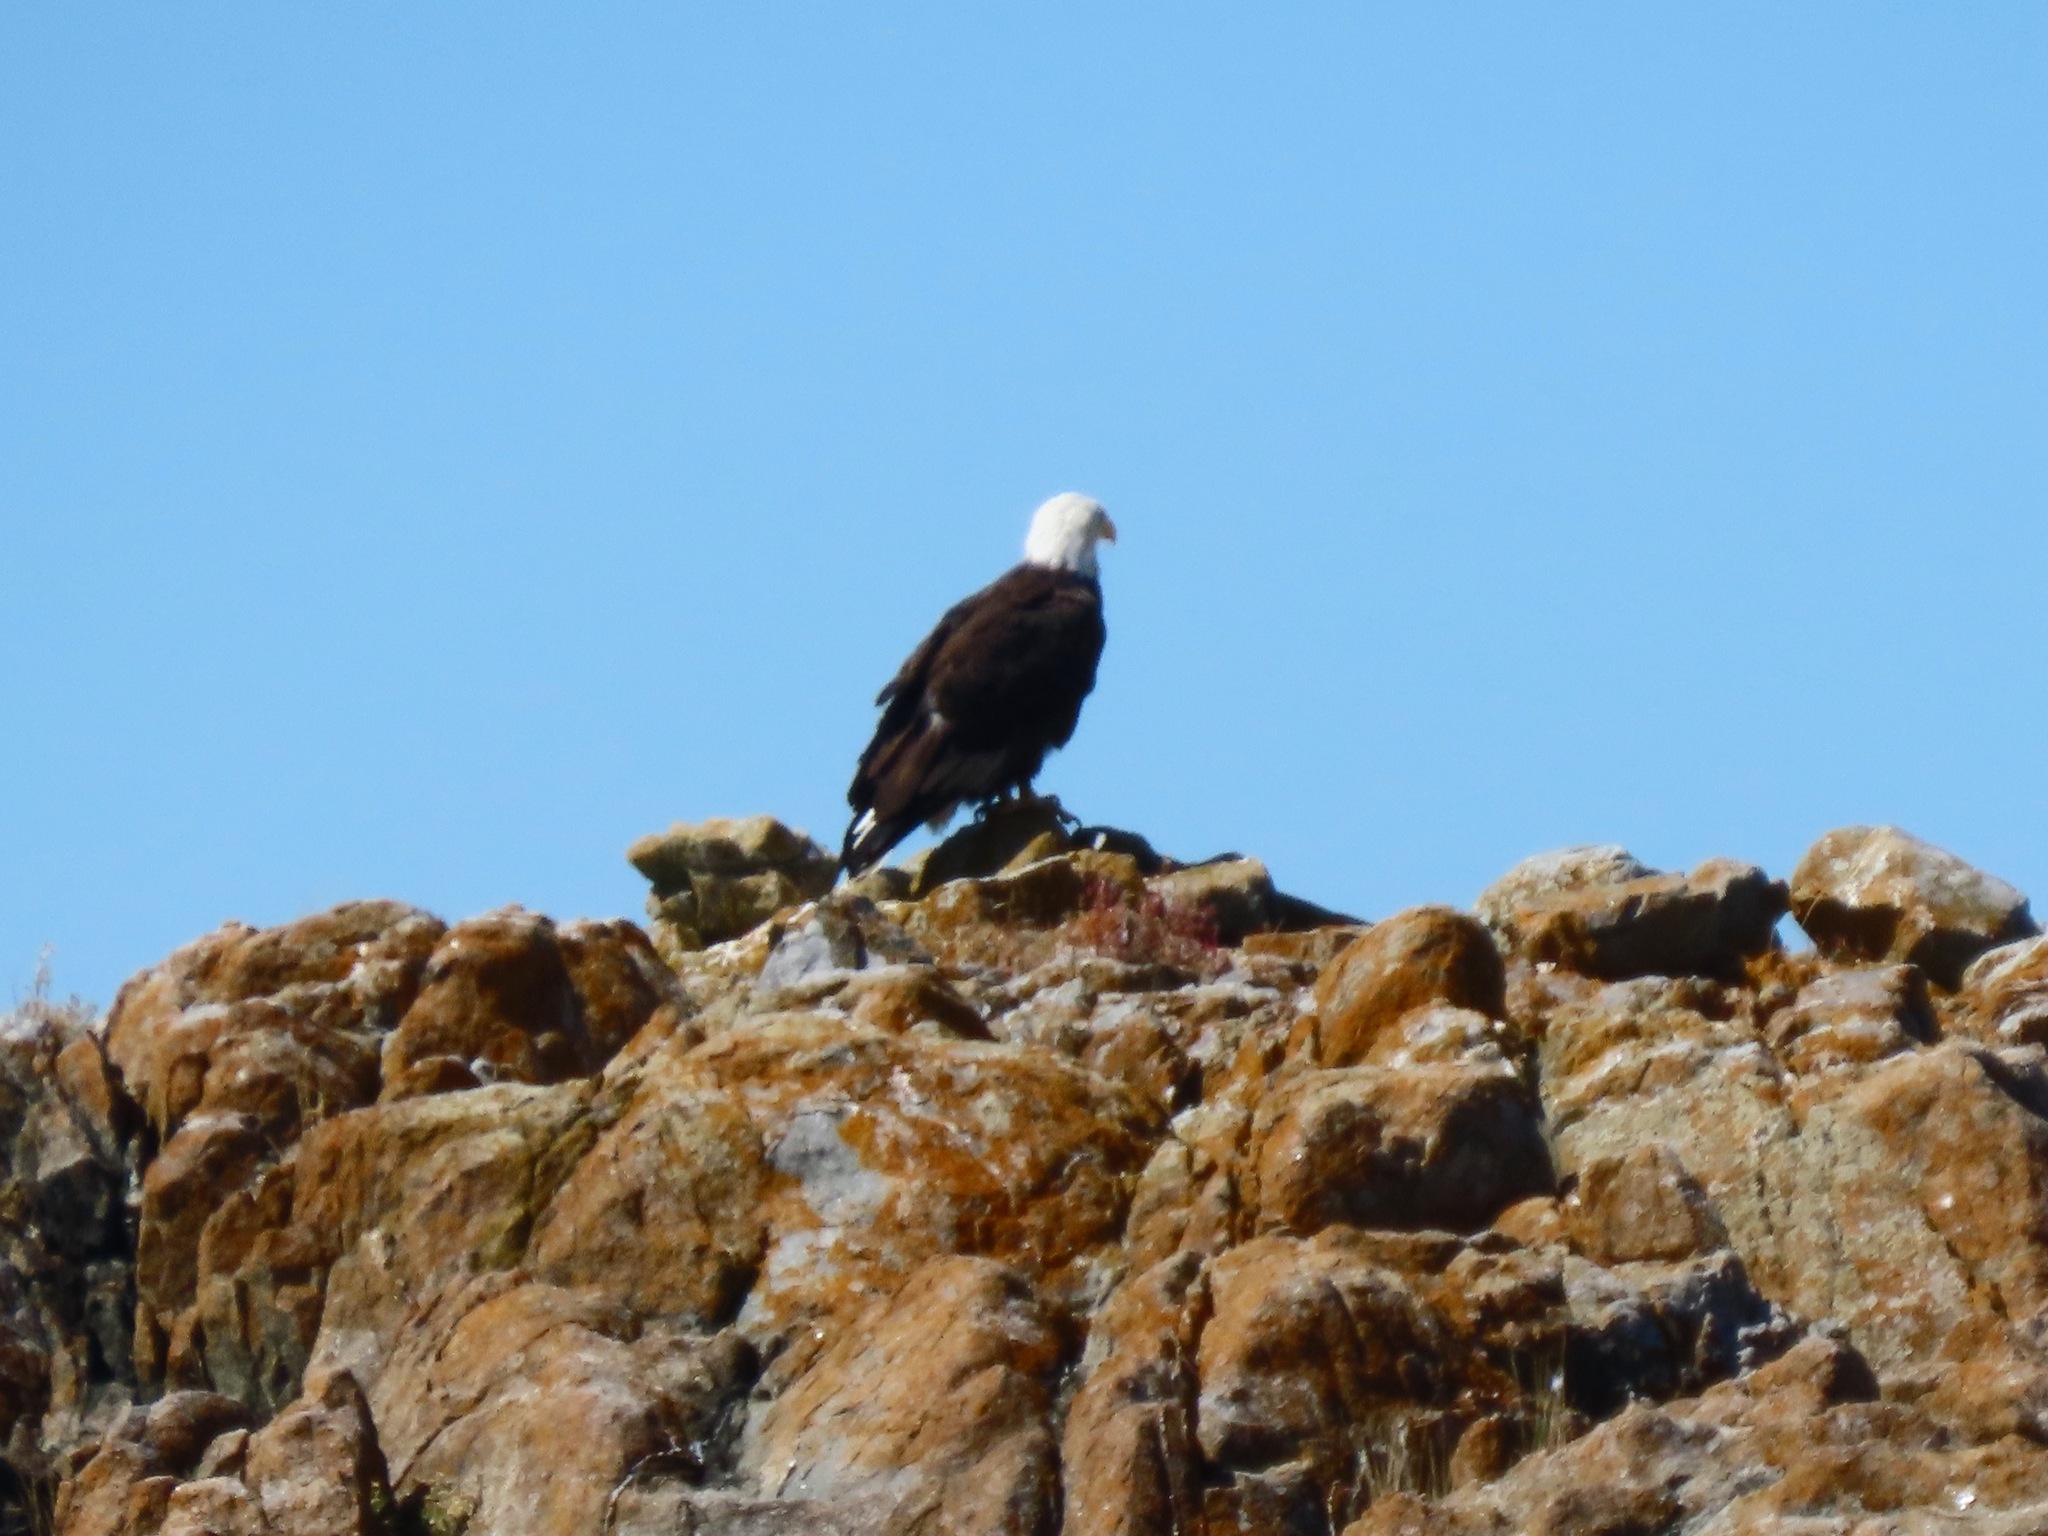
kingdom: Animalia
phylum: Chordata
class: Aves
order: Accipitriformes
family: Accipitridae
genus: Haliaeetus
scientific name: Haliaeetus leucocephalus
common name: Bald eagle
